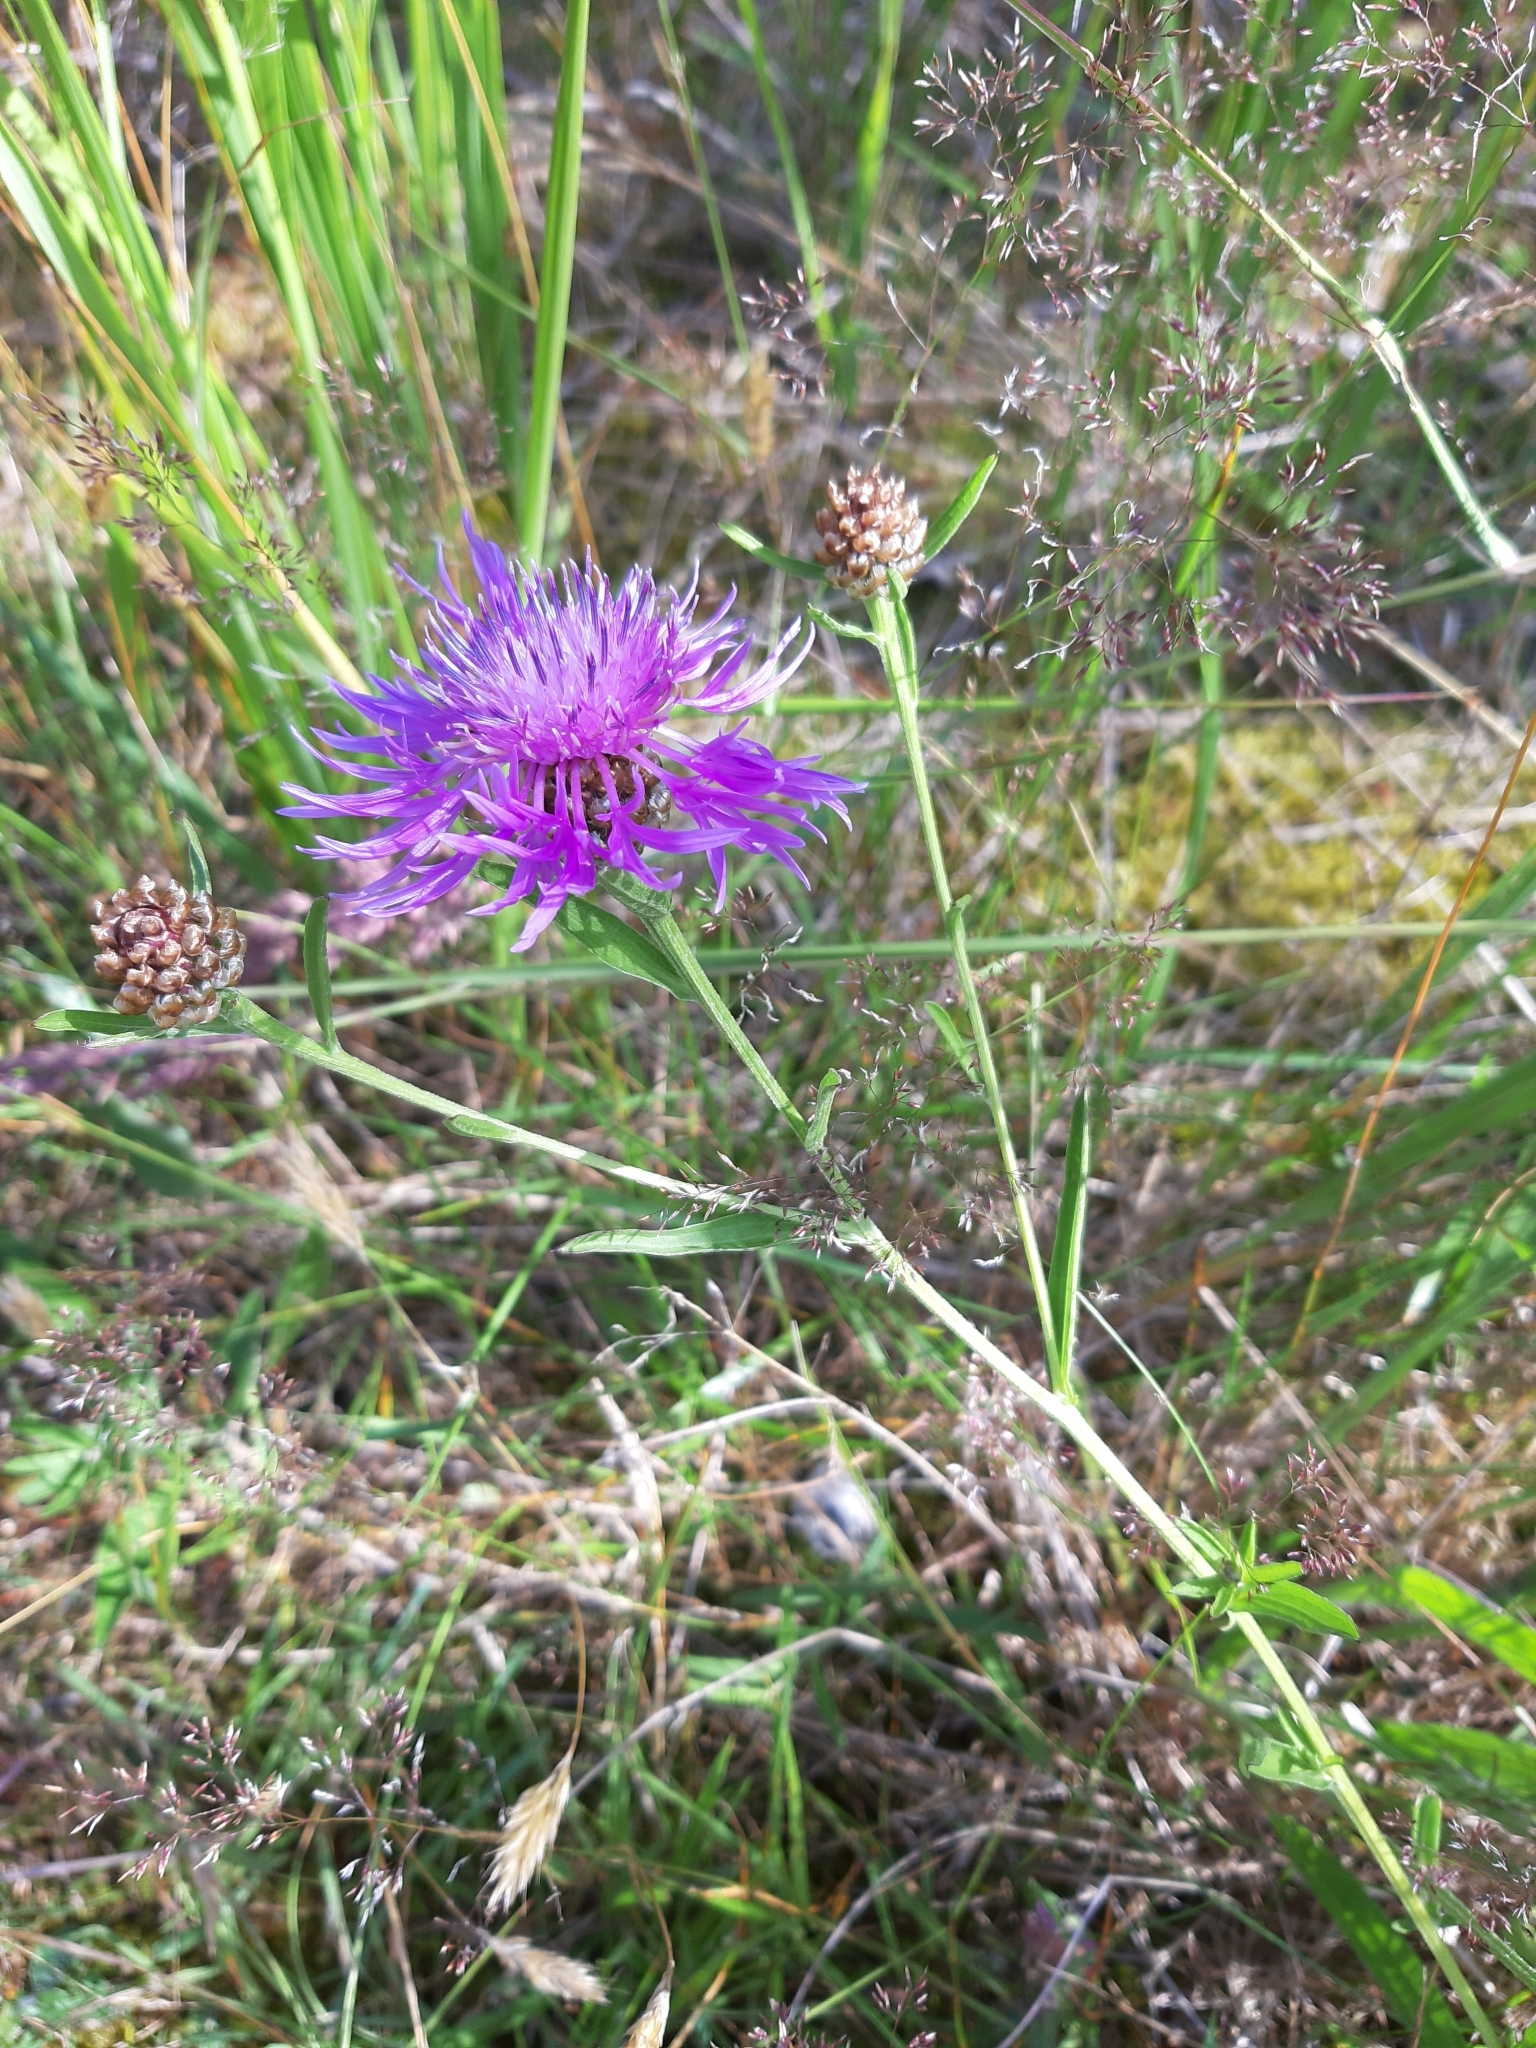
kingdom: Plantae
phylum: Tracheophyta
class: Magnoliopsida
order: Asterales
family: Asteraceae
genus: Centaurea
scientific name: Centaurea jacea
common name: Brown knapweed
